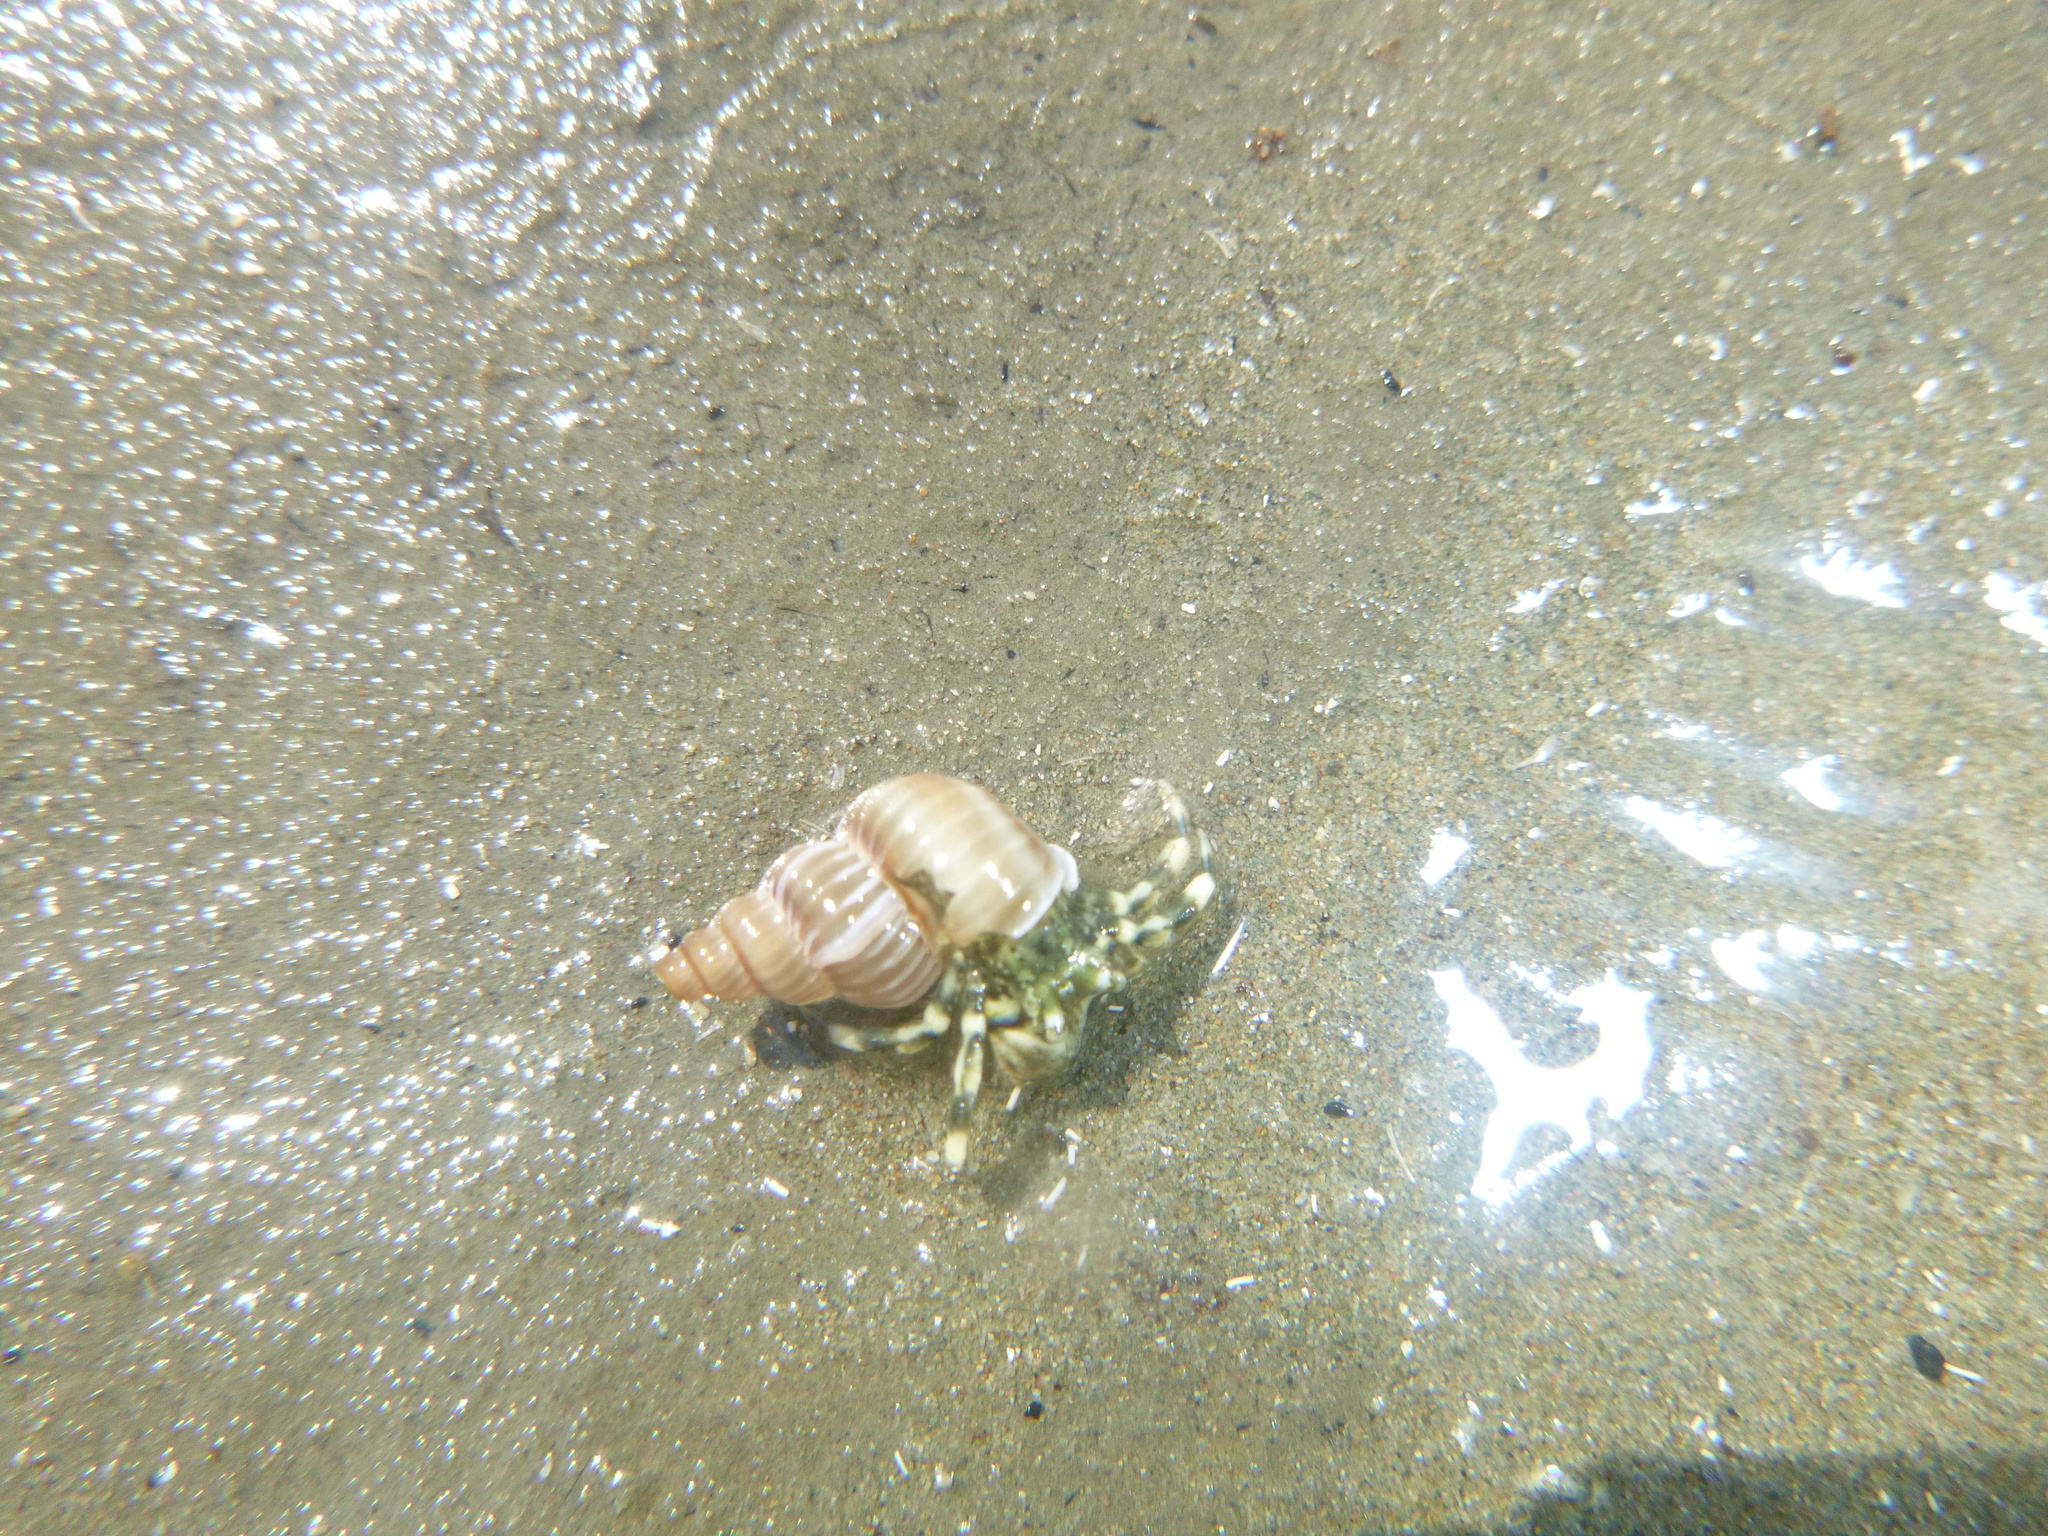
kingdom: Animalia
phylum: Arthropoda
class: Malacostraca
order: Decapoda
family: Paguridae
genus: Pagurus
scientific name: Pagurus novizealandiae
